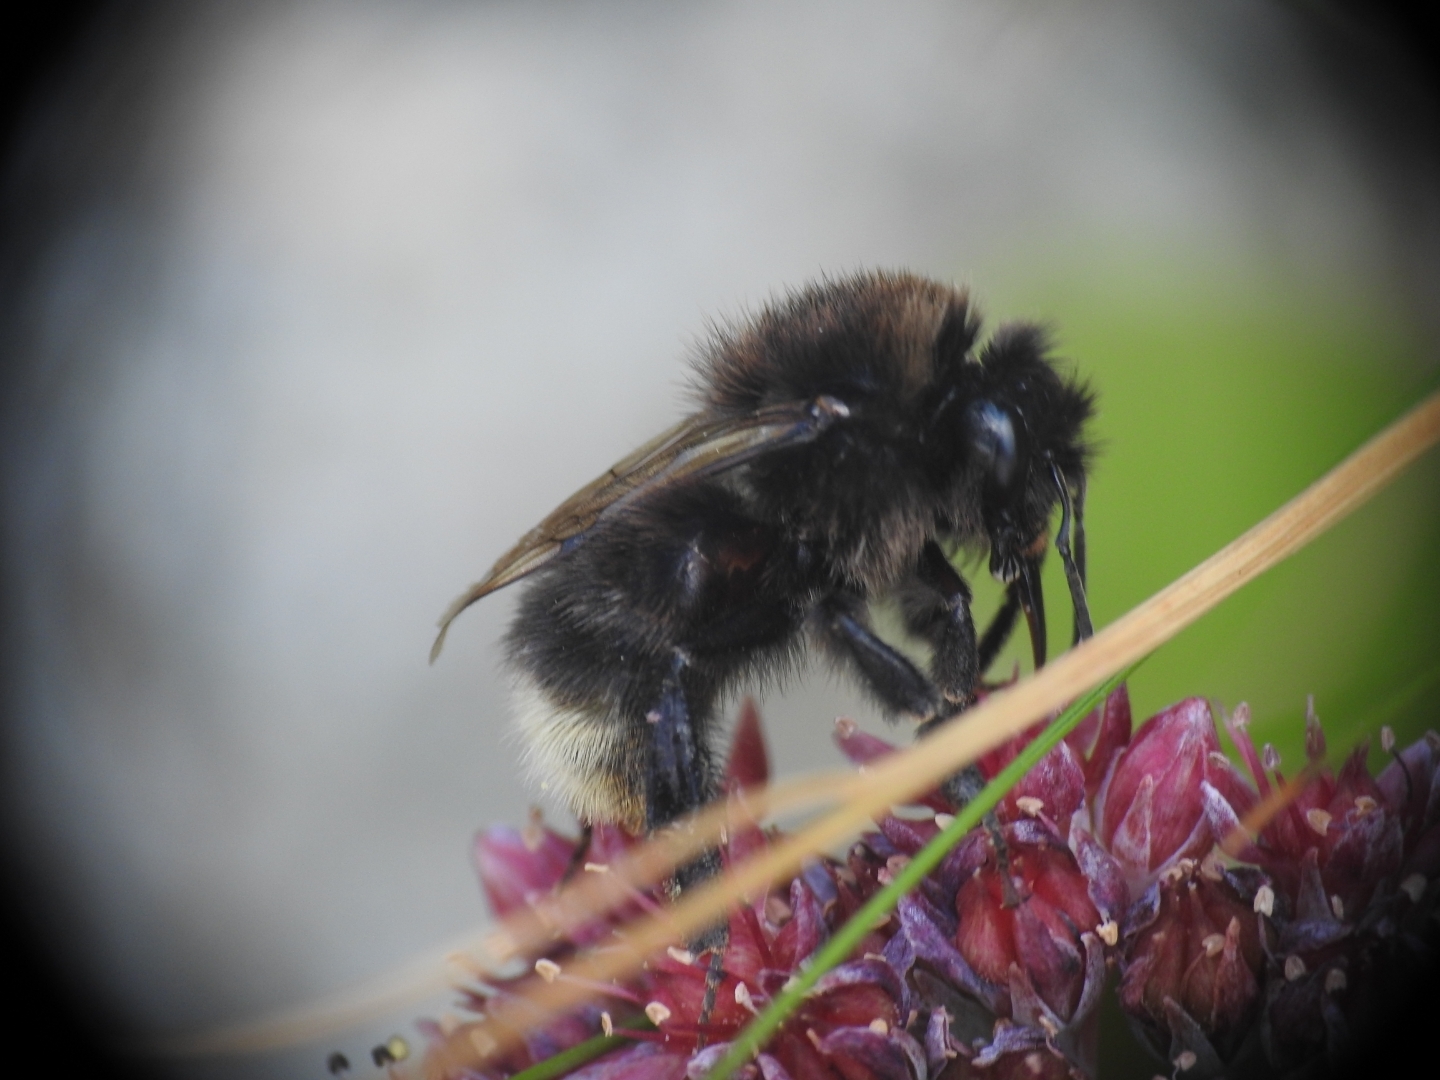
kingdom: Animalia
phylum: Arthropoda
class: Insecta
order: Hymenoptera
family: Apidae
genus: Bombus
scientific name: Bombus hypnorum
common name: New garden bumblebee
